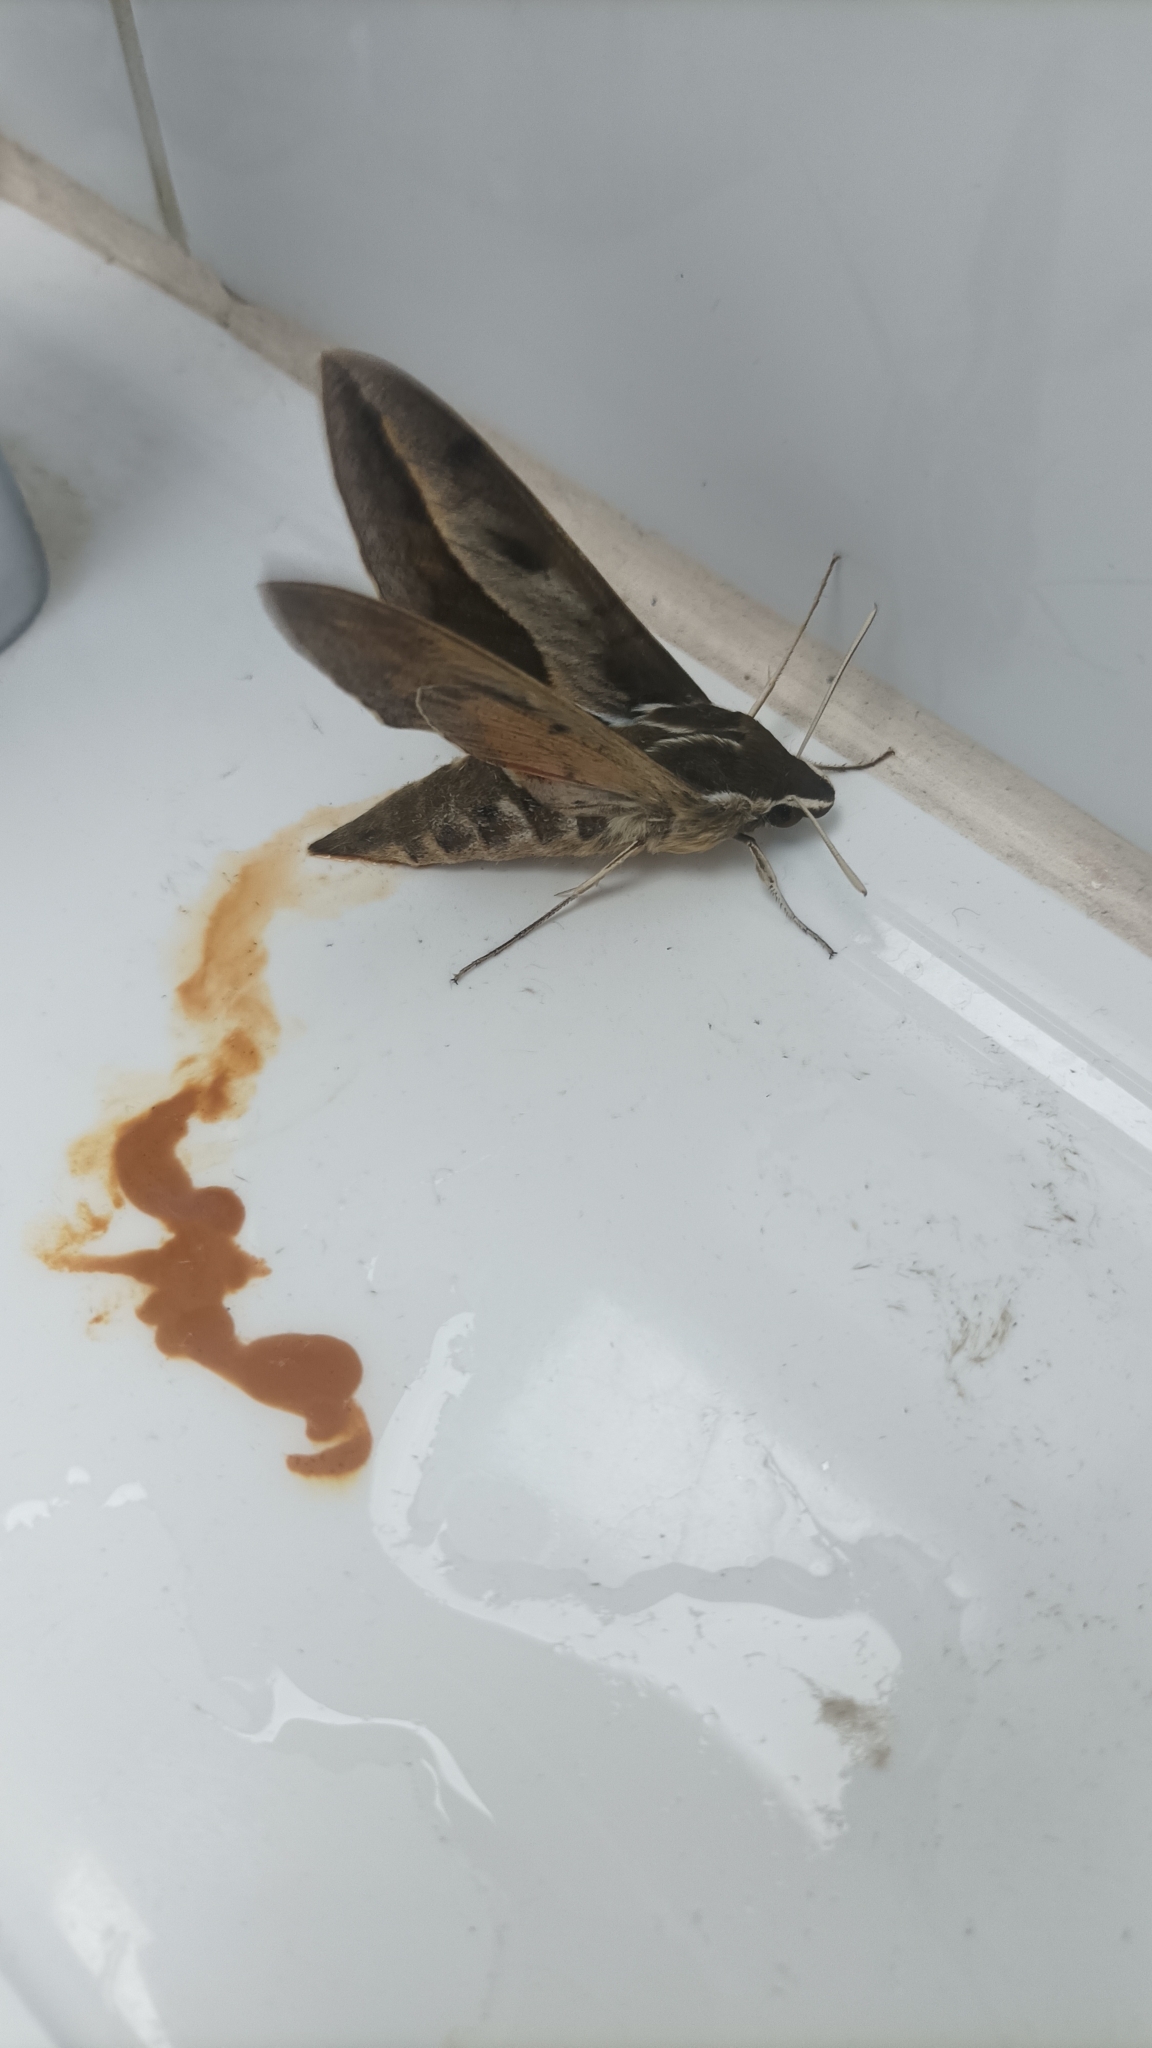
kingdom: Animalia
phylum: Arthropoda
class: Insecta
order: Lepidoptera
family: Sphingidae
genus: Hyles
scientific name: Hyles annei
